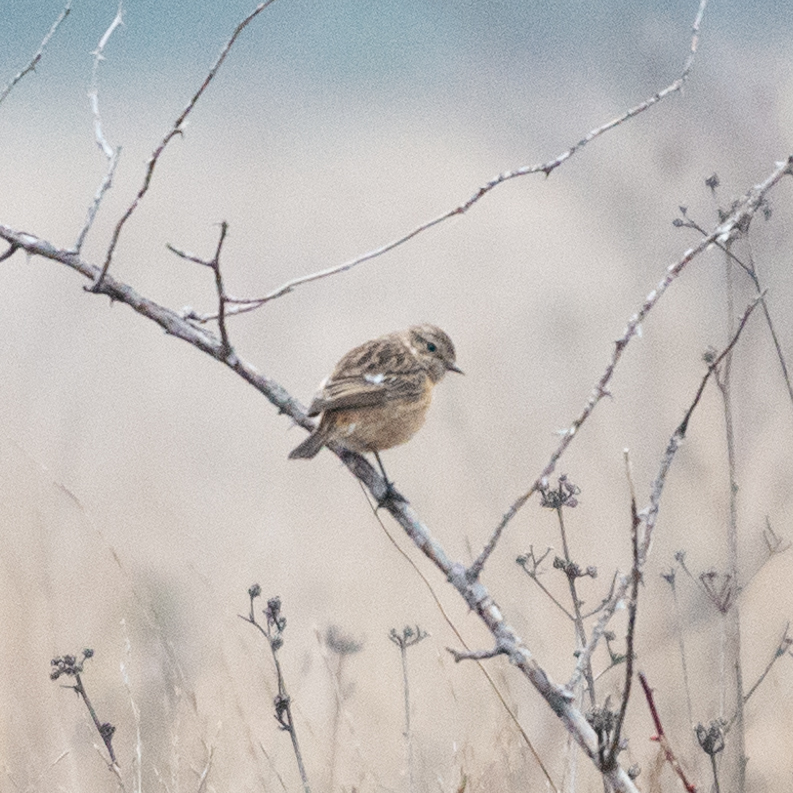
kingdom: Animalia
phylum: Chordata
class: Aves
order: Passeriformes
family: Muscicapidae
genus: Saxicola
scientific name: Saxicola rubicola
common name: European stonechat
